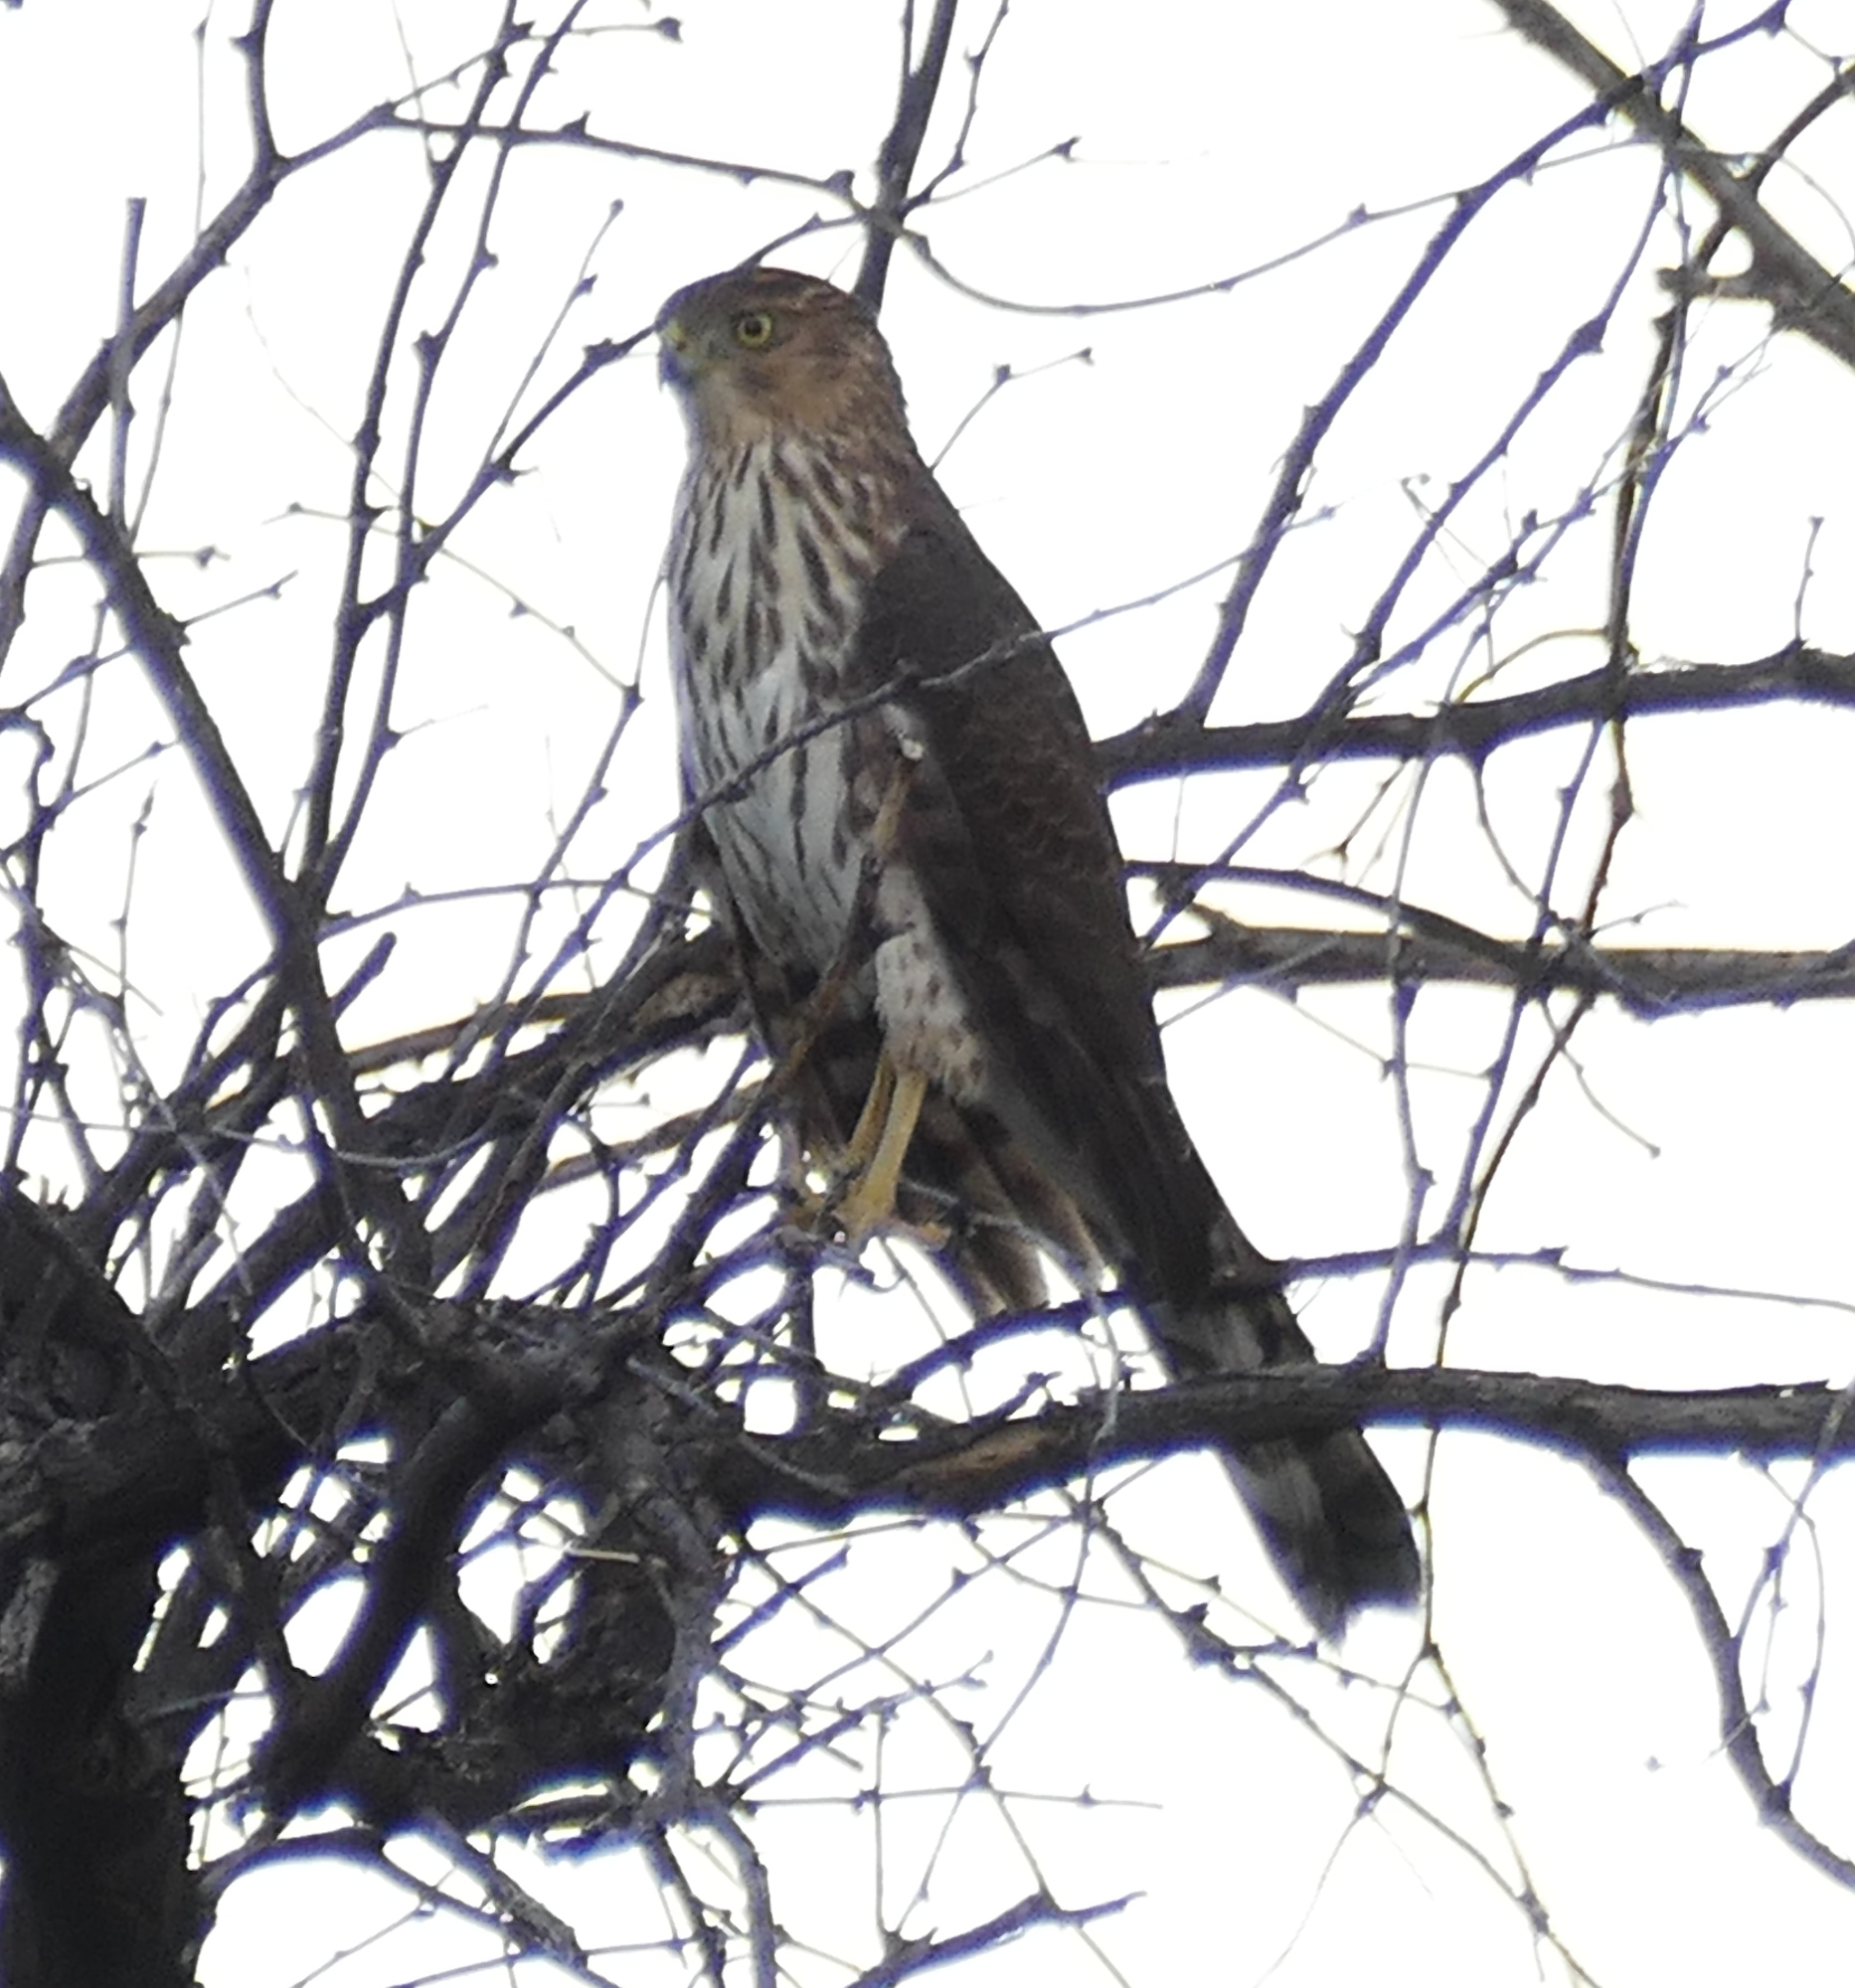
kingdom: Animalia
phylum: Chordata
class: Aves
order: Accipitriformes
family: Accipitridae
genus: Accipiter
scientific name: Accipiter cooperii
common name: Cooper's hawk
